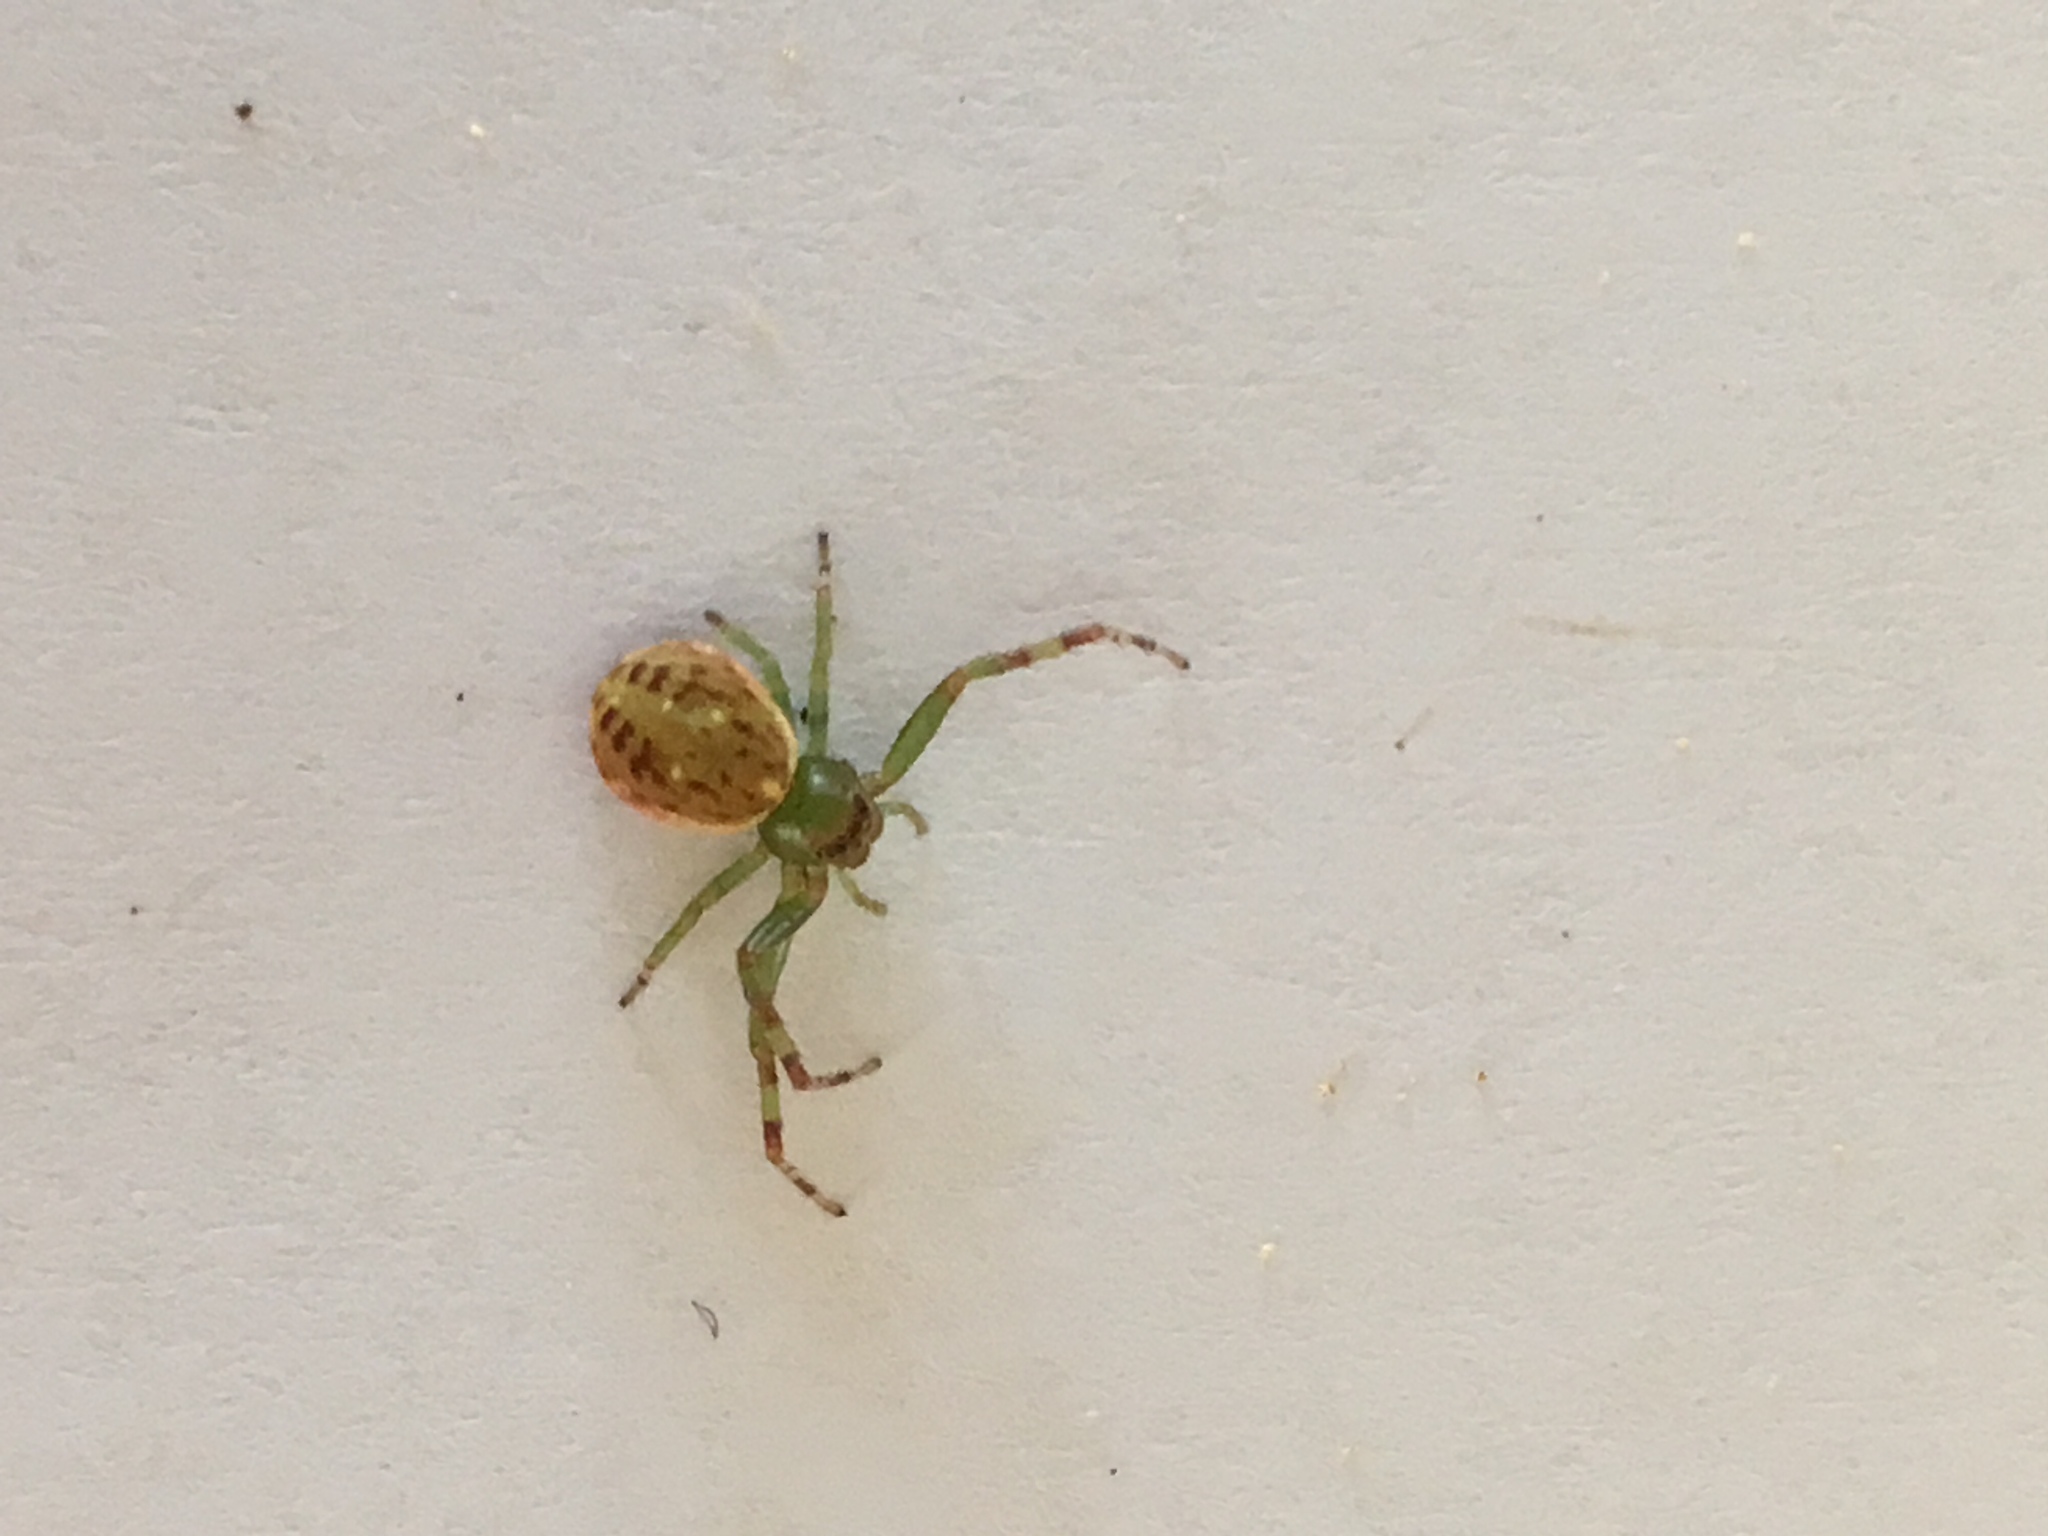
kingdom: Animalia
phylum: Arthropoda
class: Arachnida
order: Araneae
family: Thomisidae
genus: Diaea
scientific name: Diaea ambara
